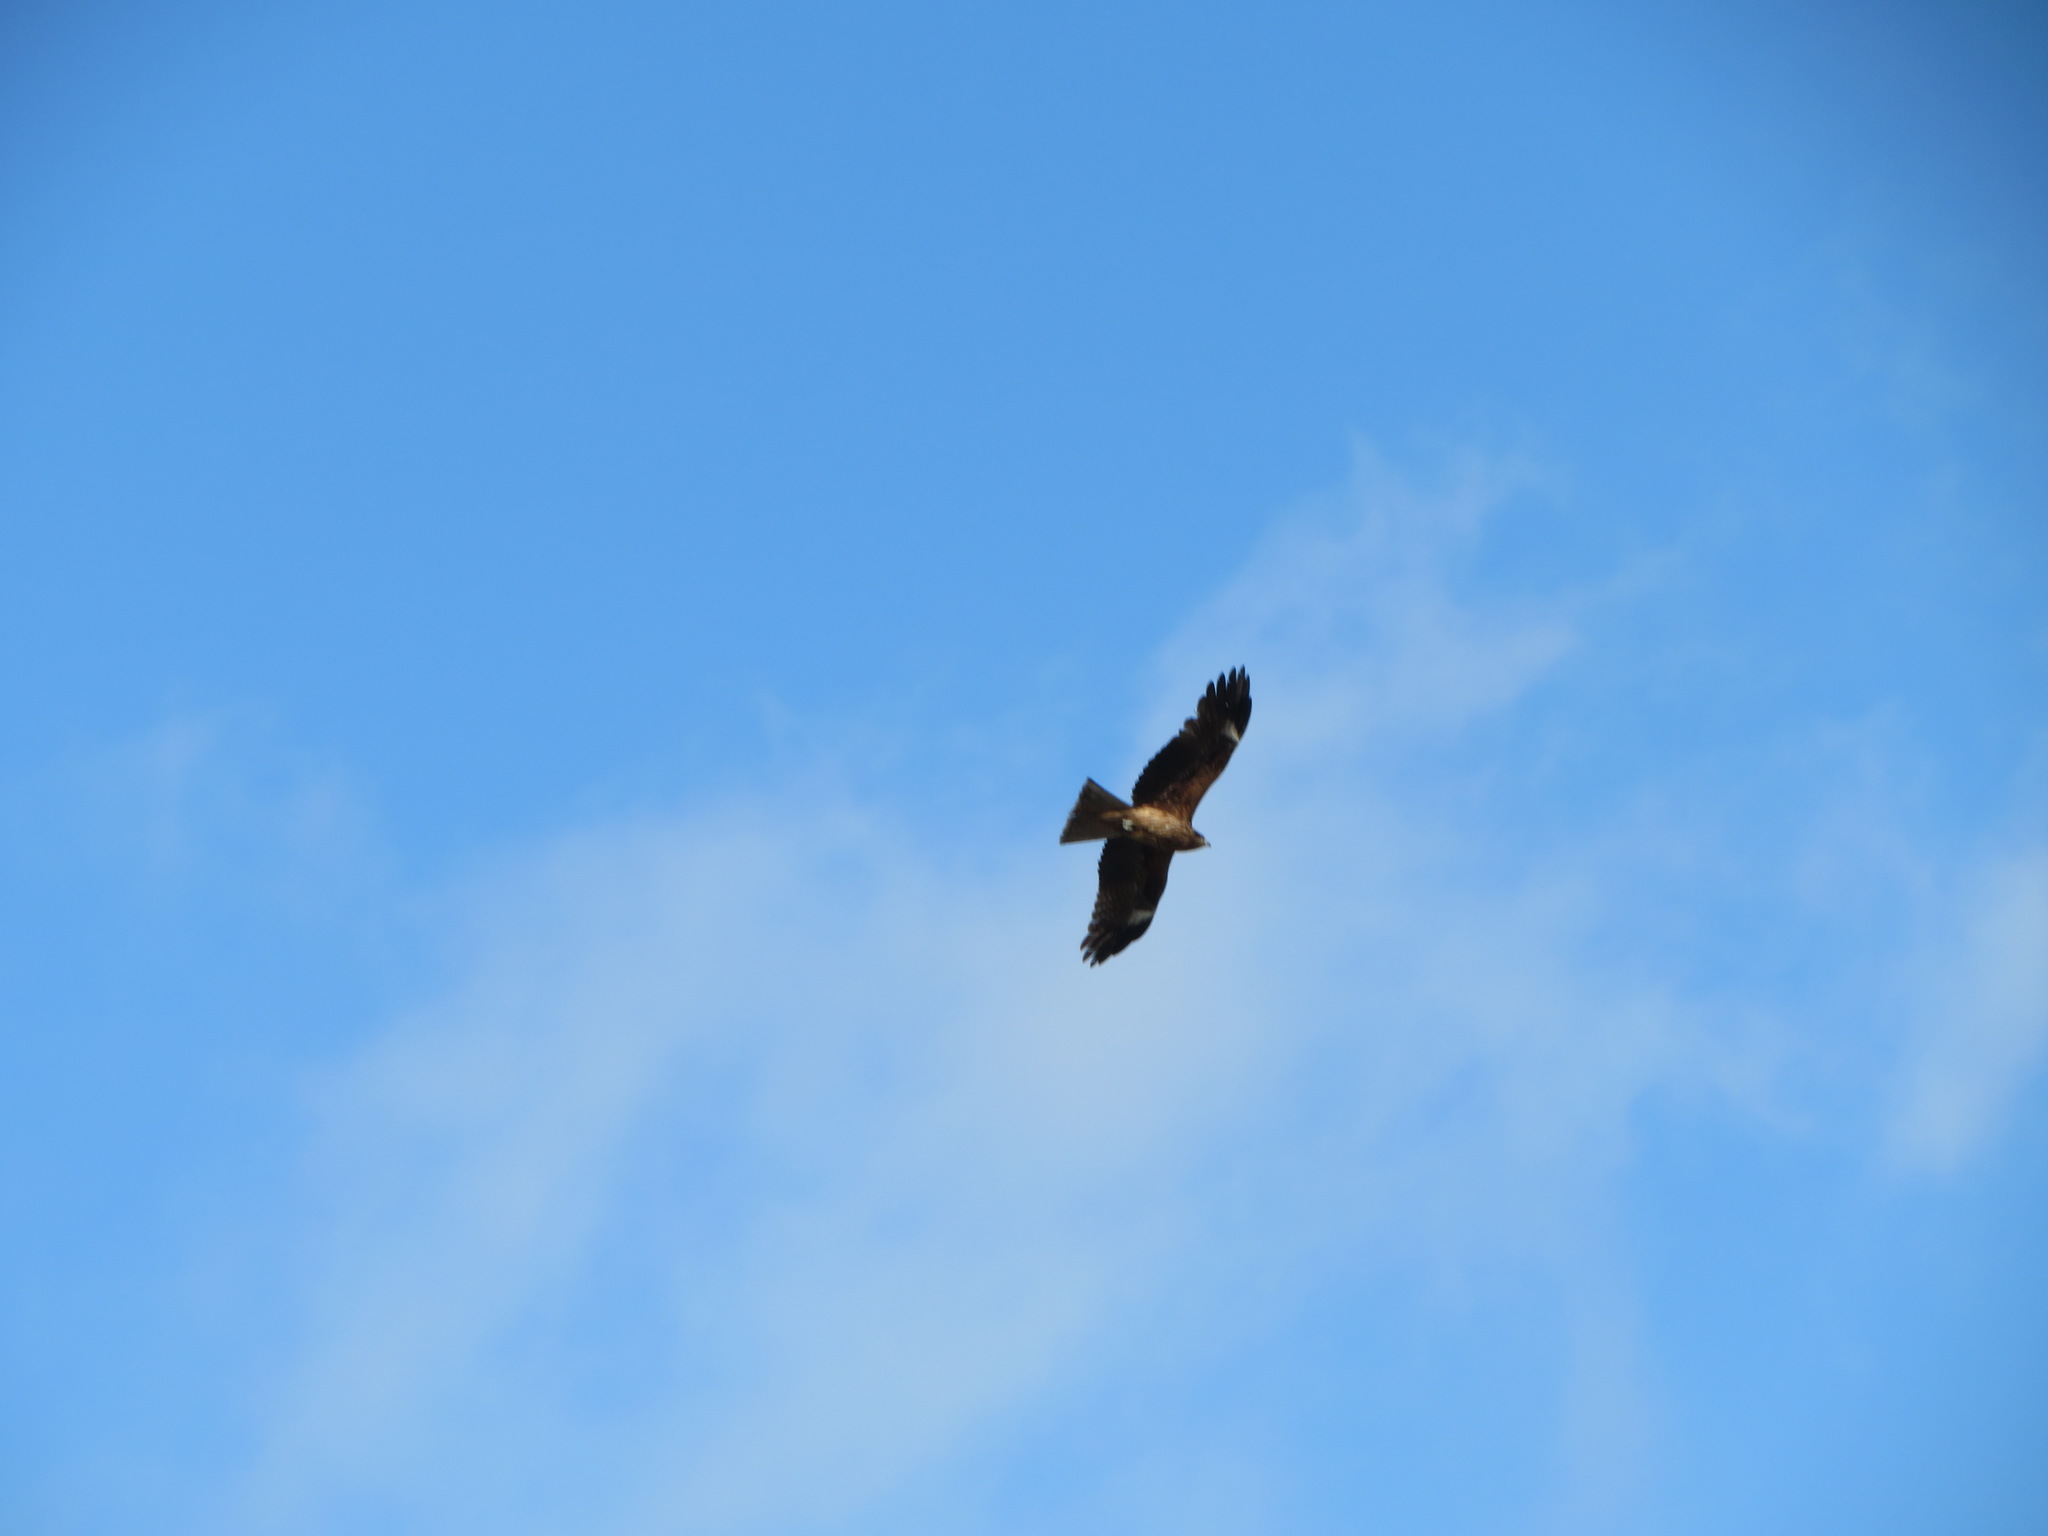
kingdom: Animalia
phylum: Chordata
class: Aves
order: Accipitriformes
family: Accipitridae
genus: Milvus
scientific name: Milvus migrans
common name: Black kite
